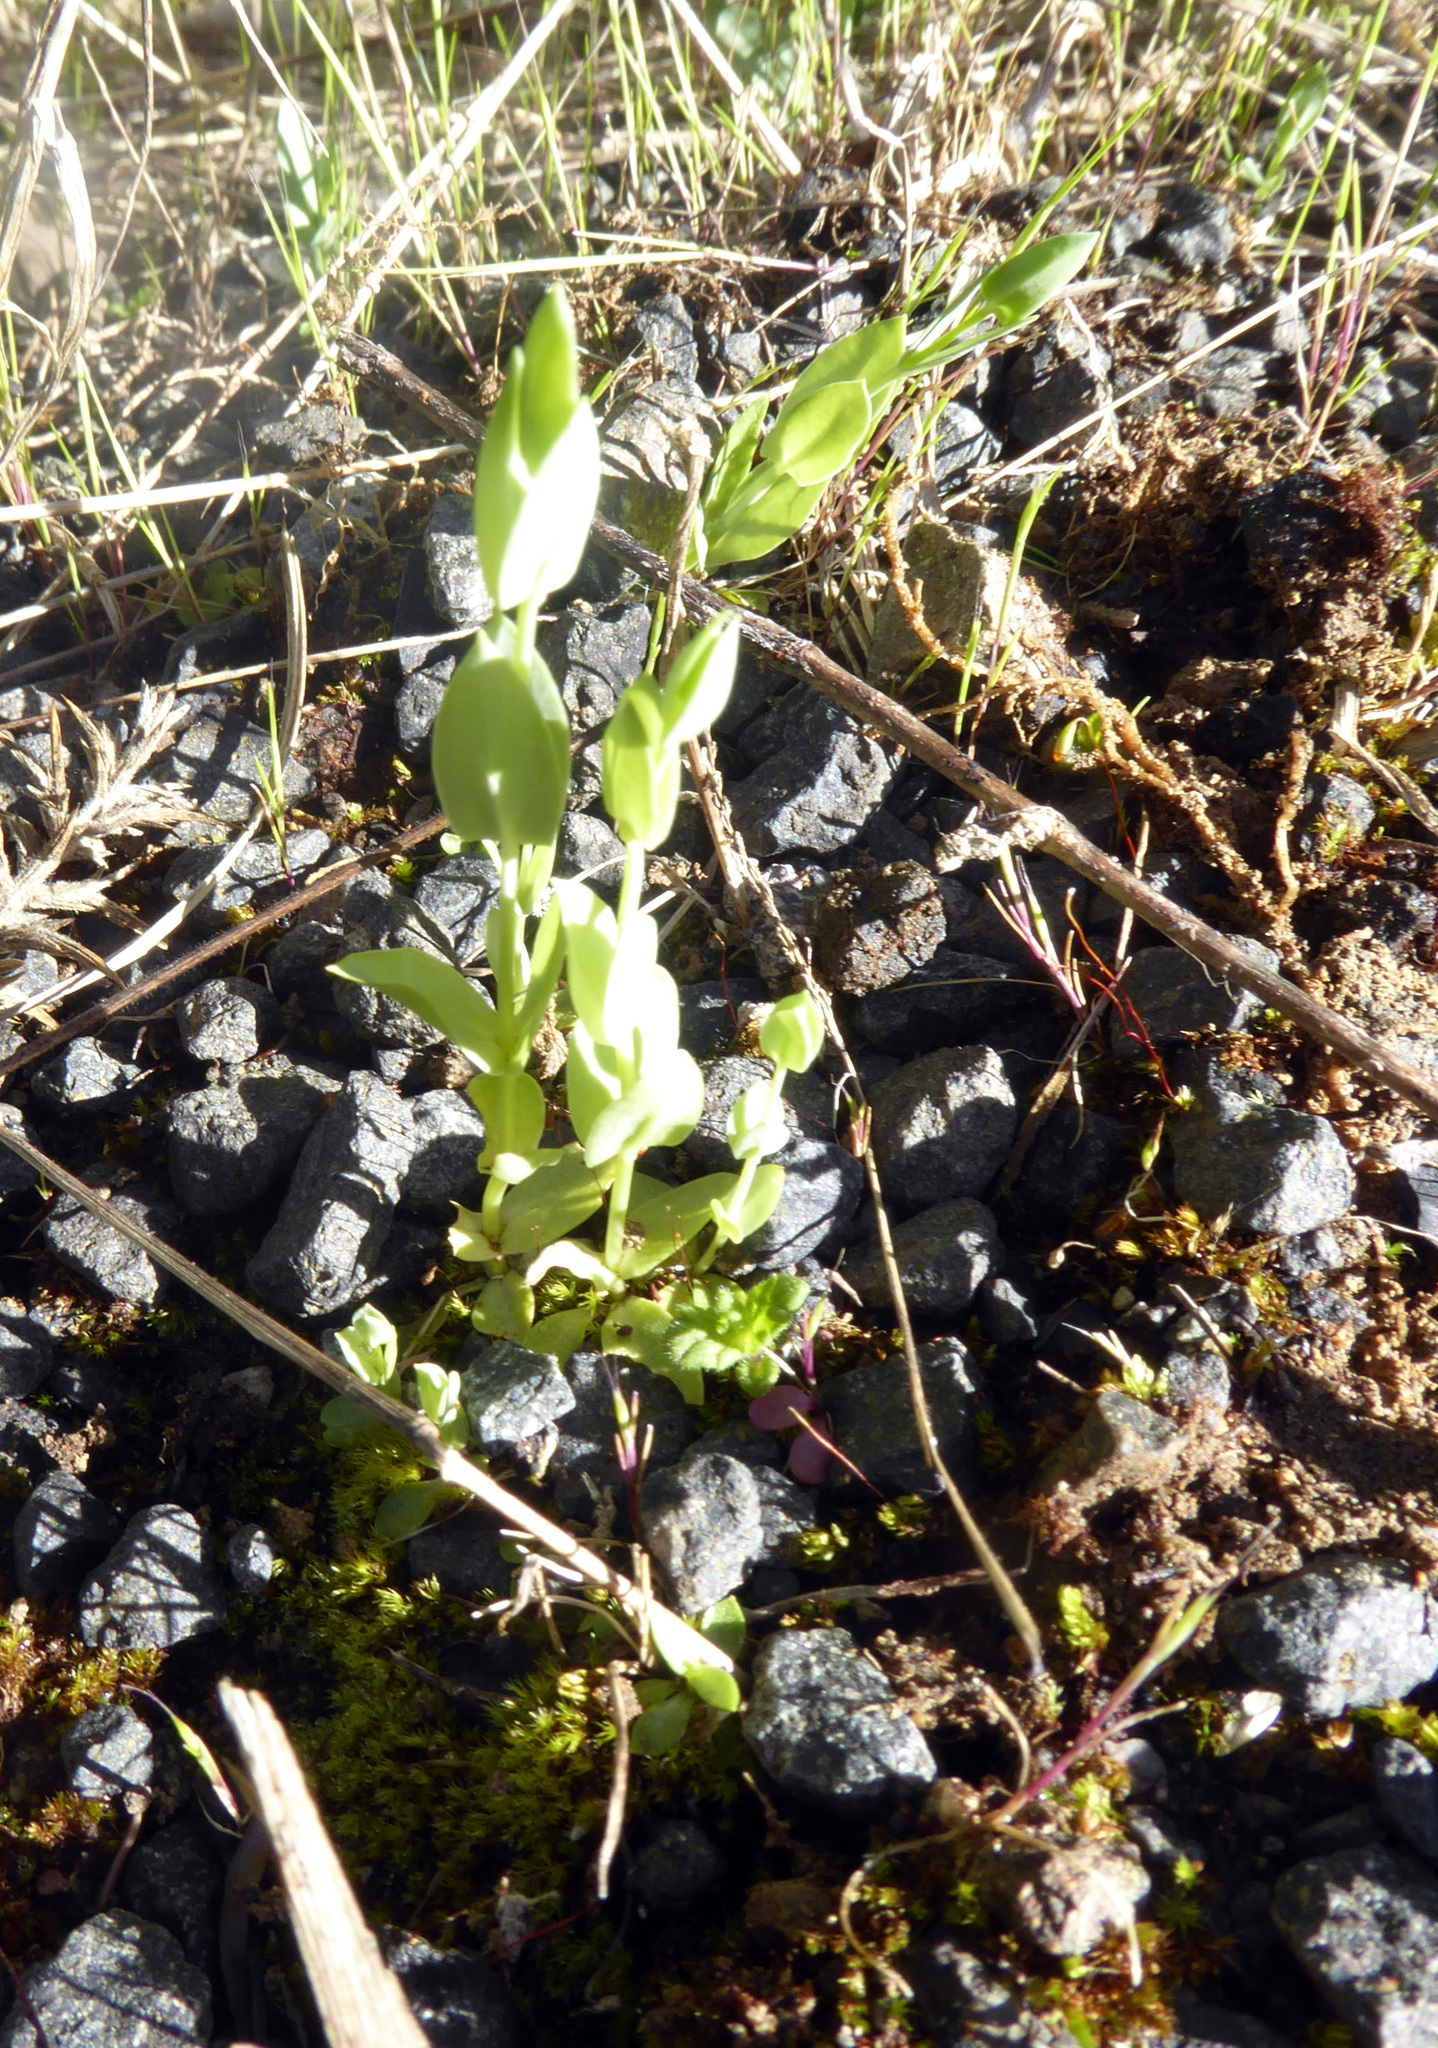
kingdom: Plantae
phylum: Tracheophyta
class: Magnoliopsida
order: Gentianales
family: Gentianaceae
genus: Blackstonia
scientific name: Blackstonia perfoliata
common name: Yellow-wort
